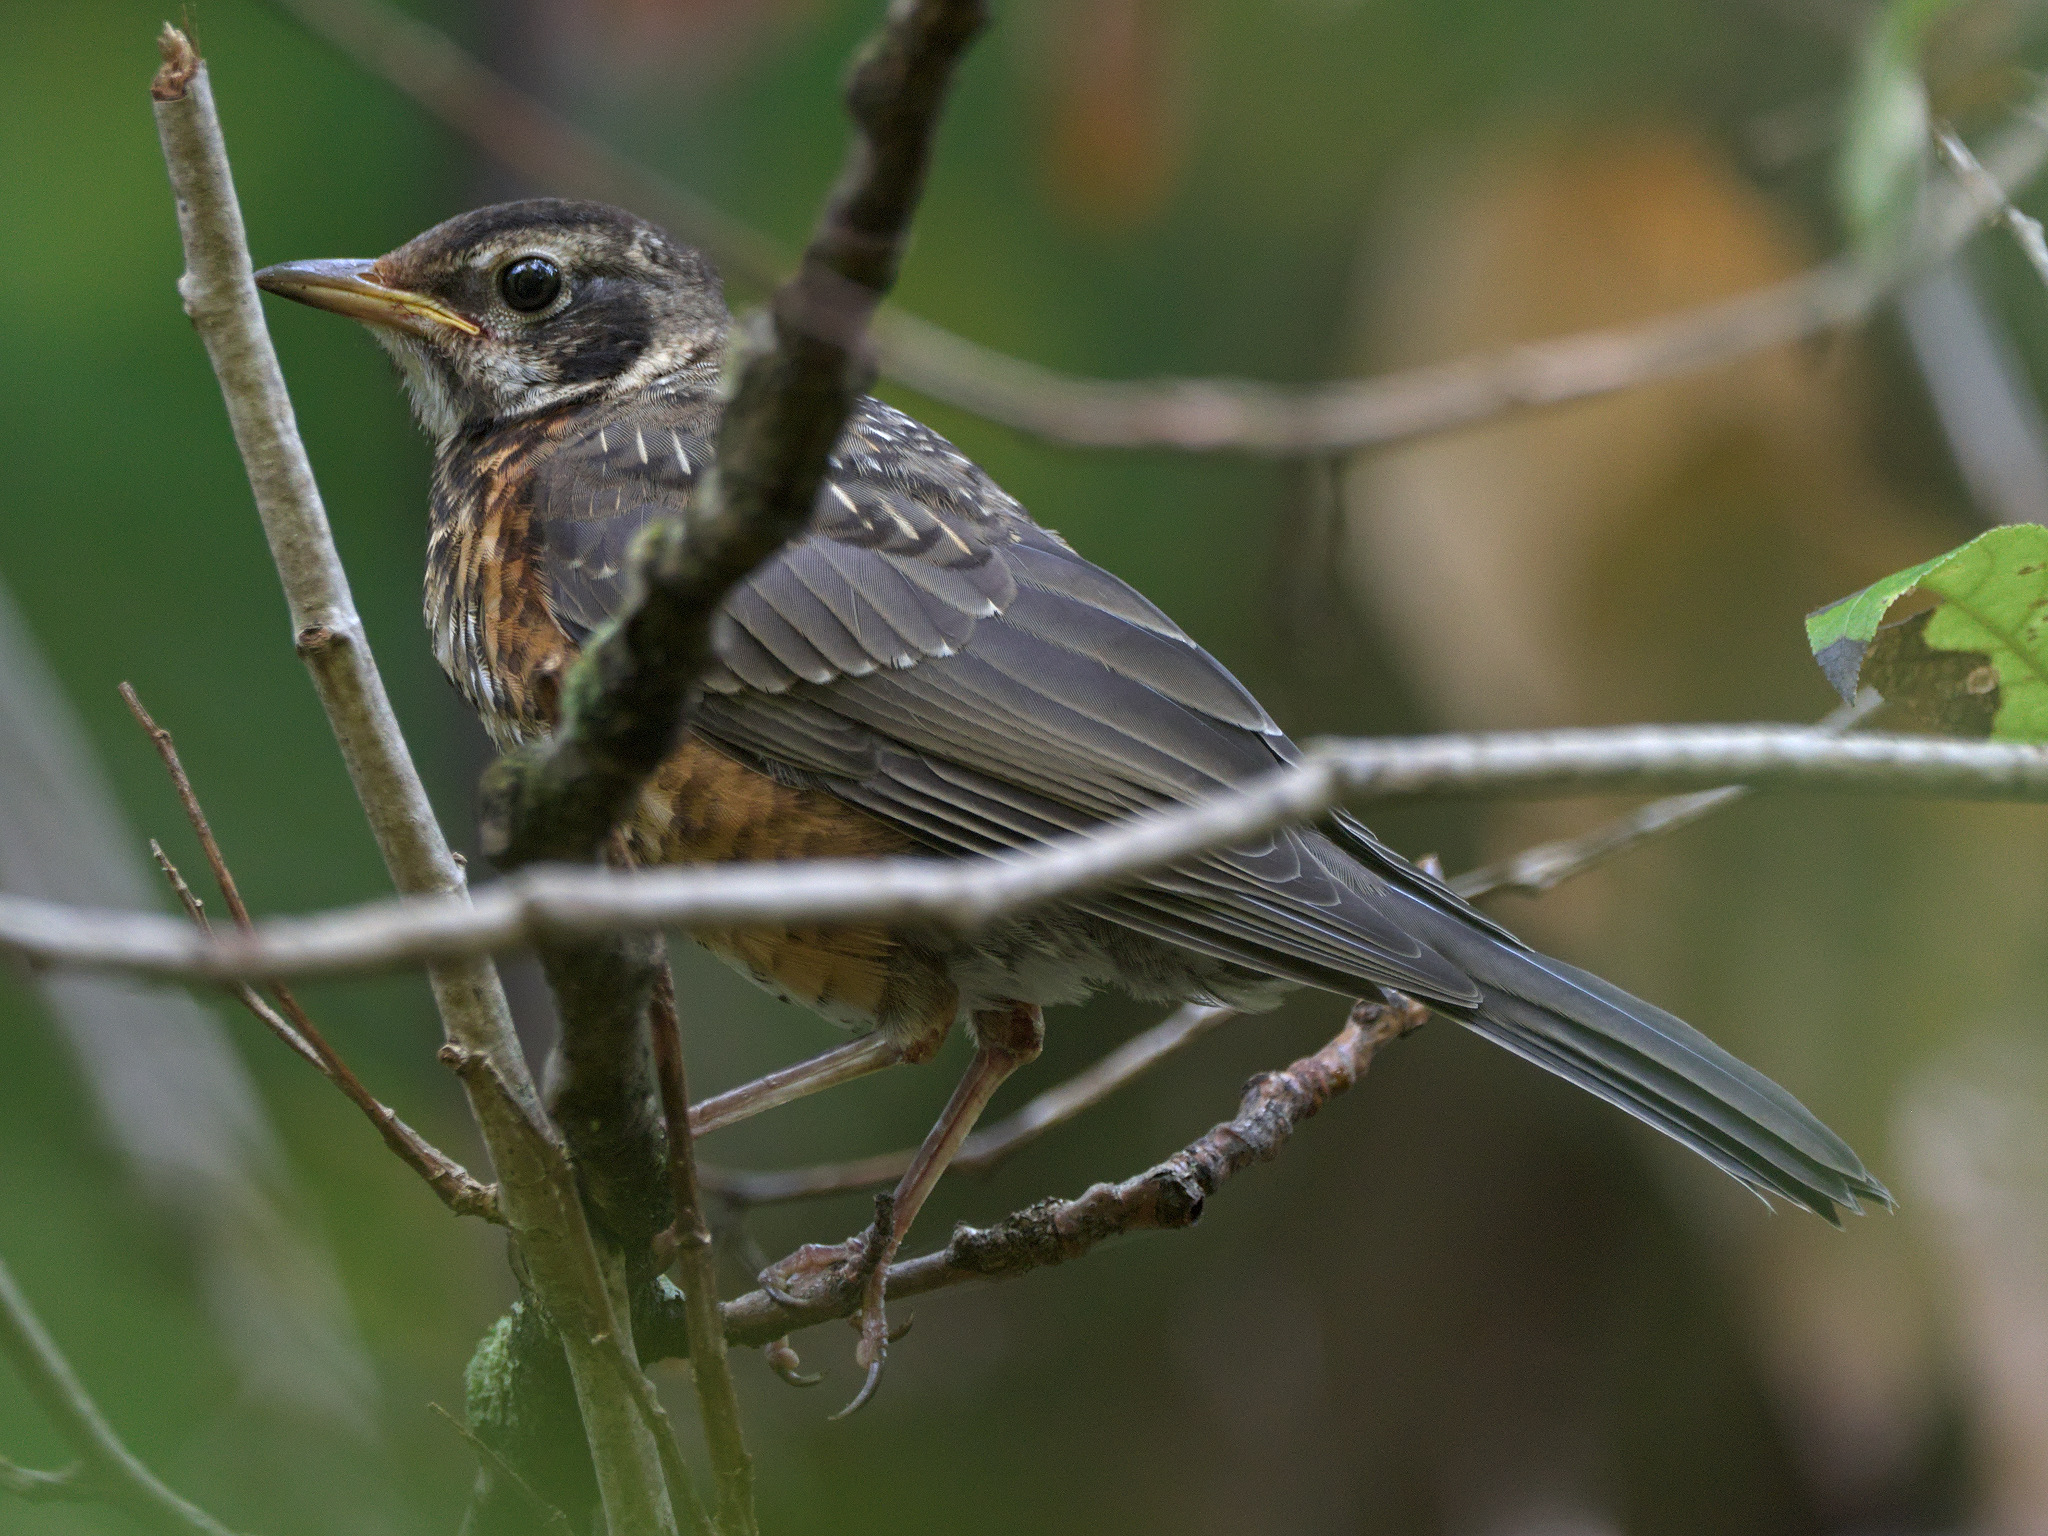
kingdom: Animalia
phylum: Chordata
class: Aves
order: Passeriformes
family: Turdidae
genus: Turdus
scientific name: Turdus migratorius
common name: American robin
